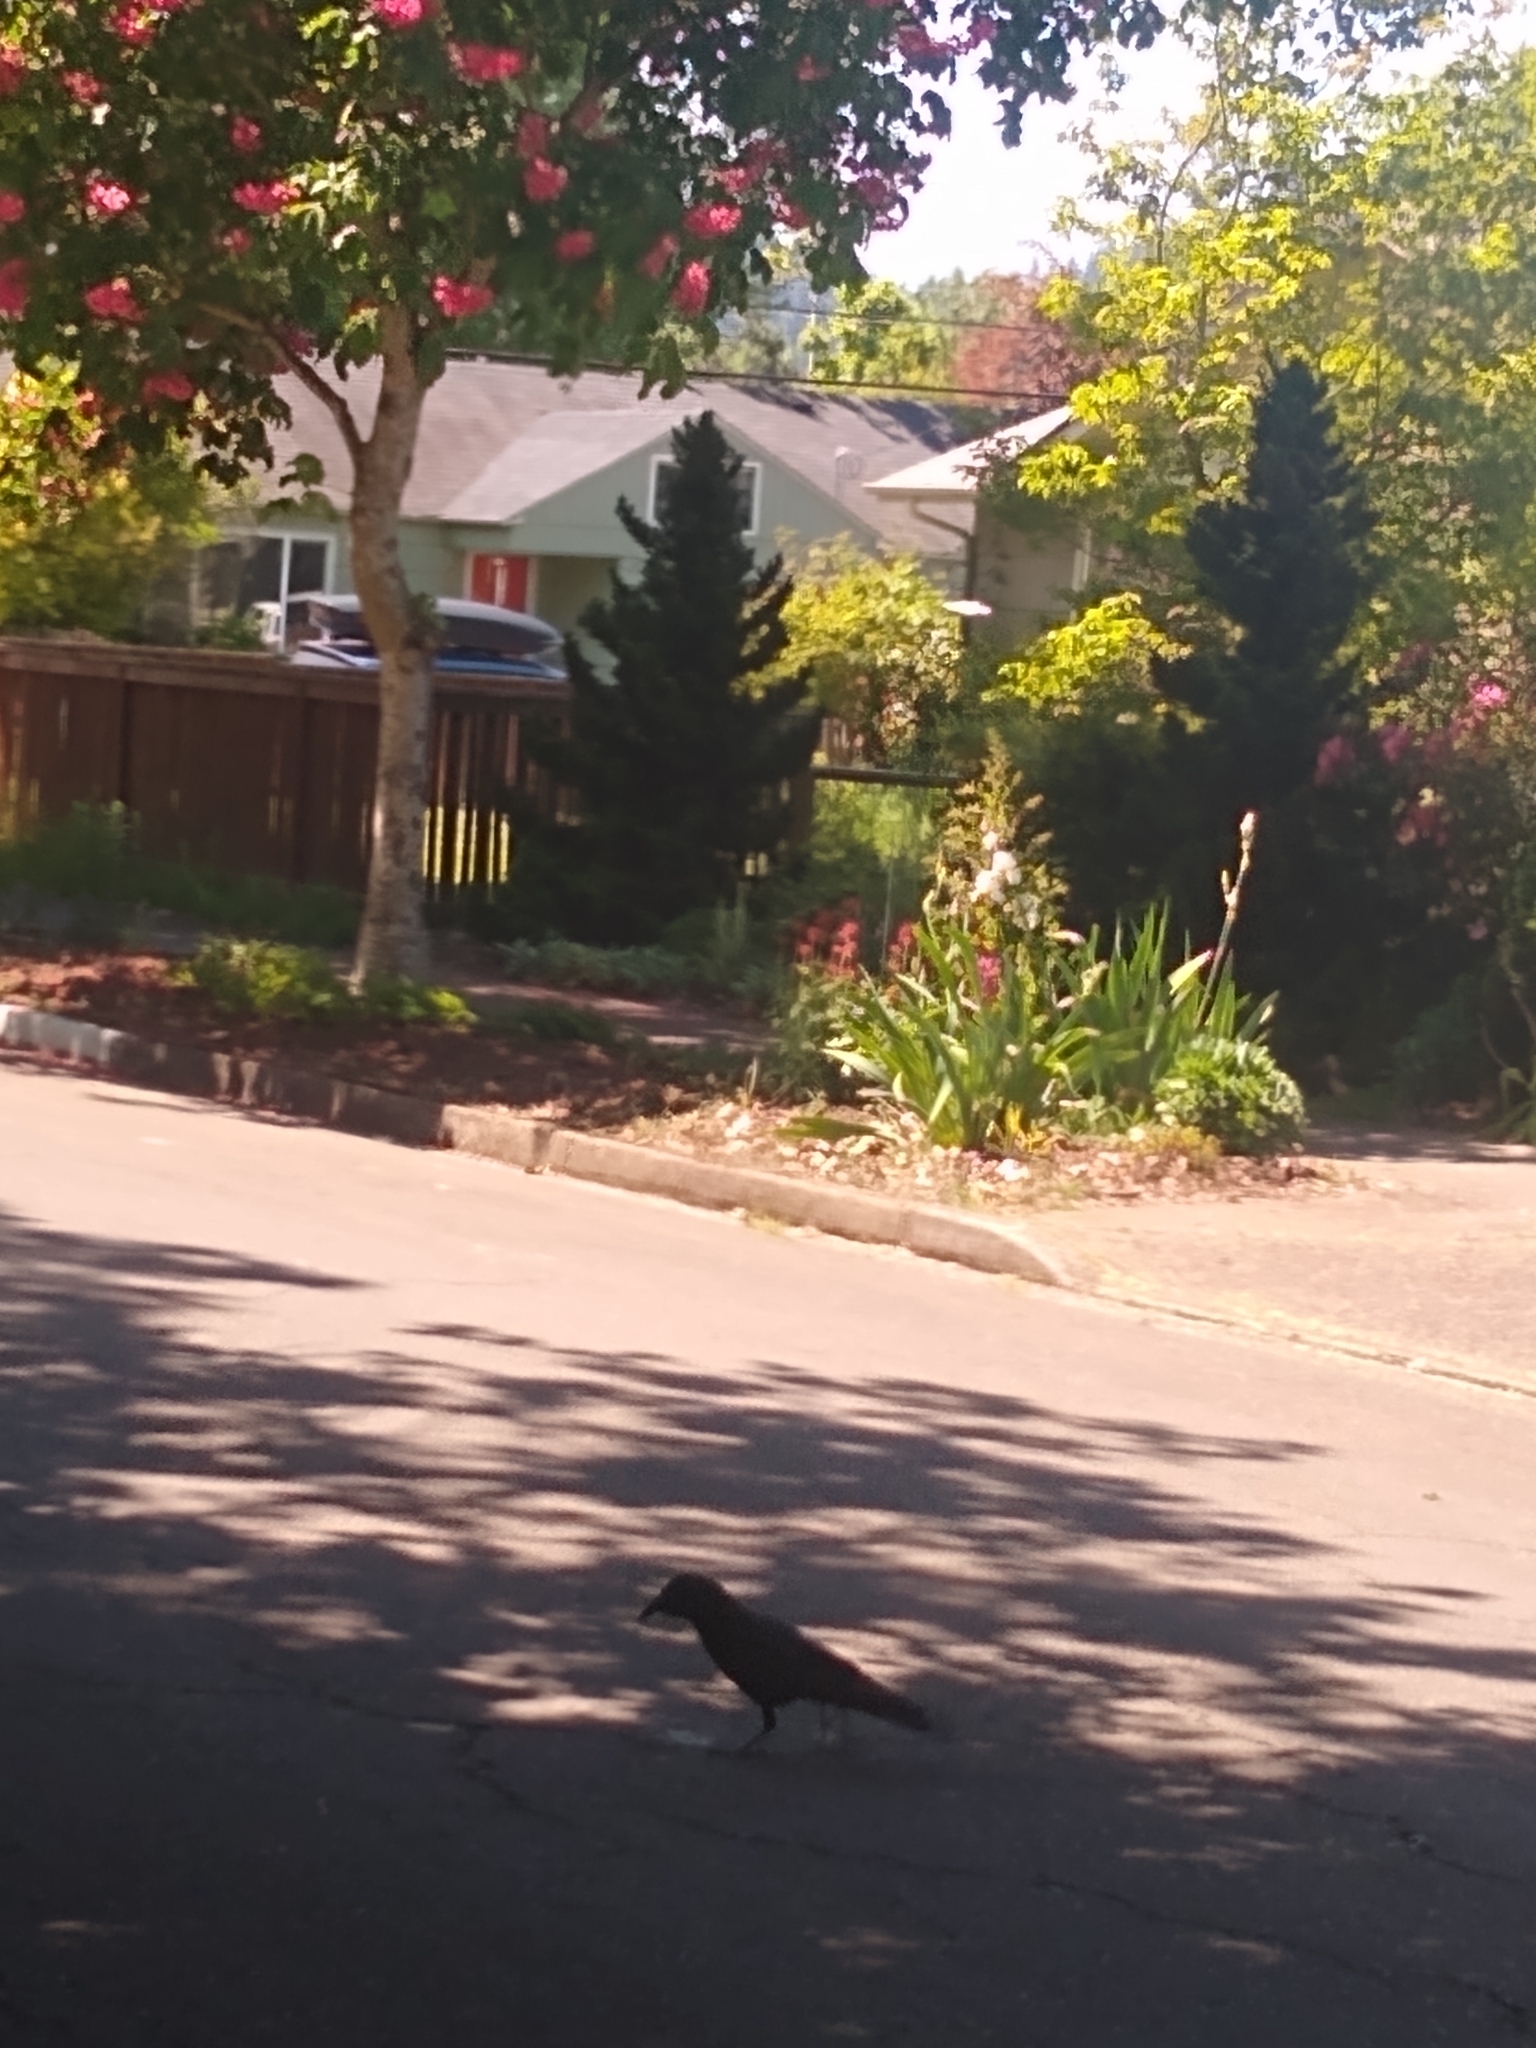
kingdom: Animalia
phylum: Chordata
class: Aves
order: Passeriformes
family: Corvidae
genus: Corvus
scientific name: Corvus brachyrhynchos
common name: American crow
